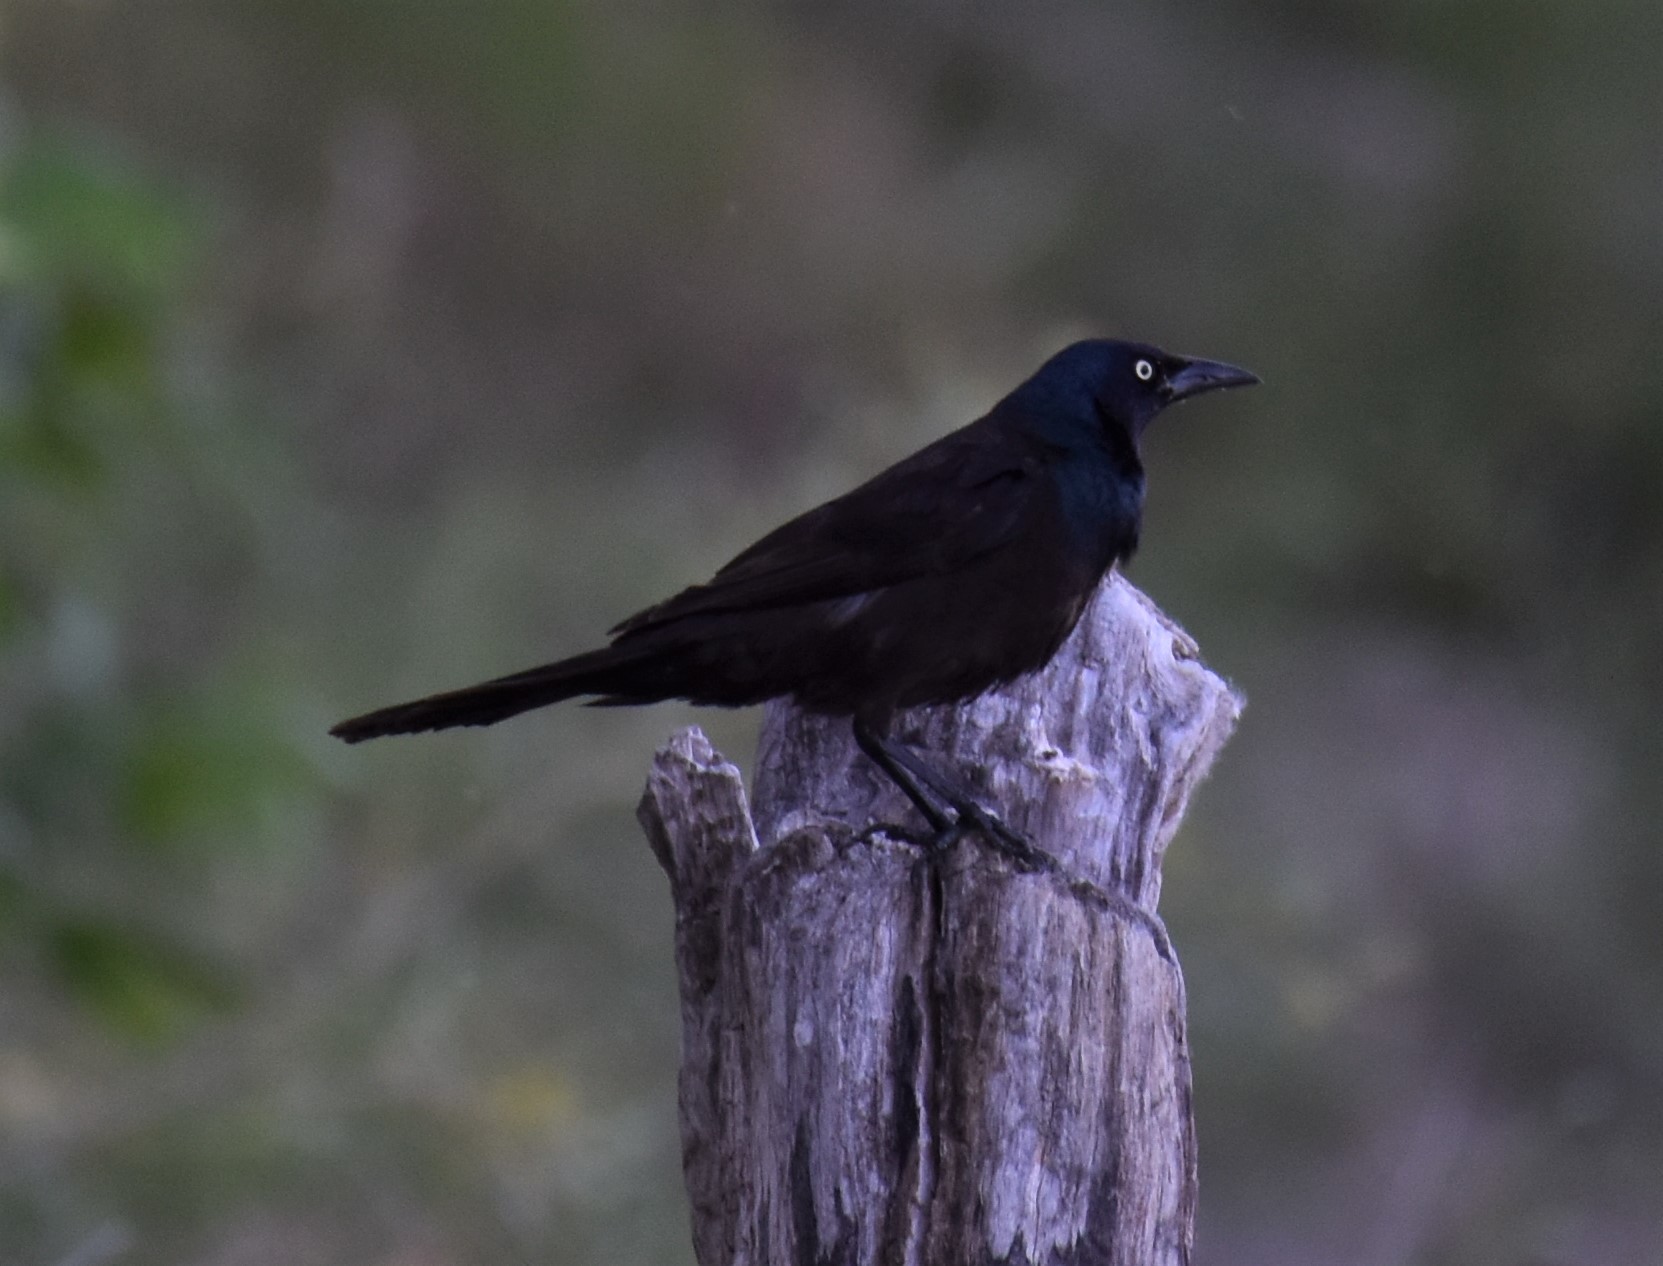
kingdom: Animalia
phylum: Chordata
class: Aves
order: Passeriformes
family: Icteridae
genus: Quiscalus
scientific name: Quiscalus quiscula
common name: Common grackle
